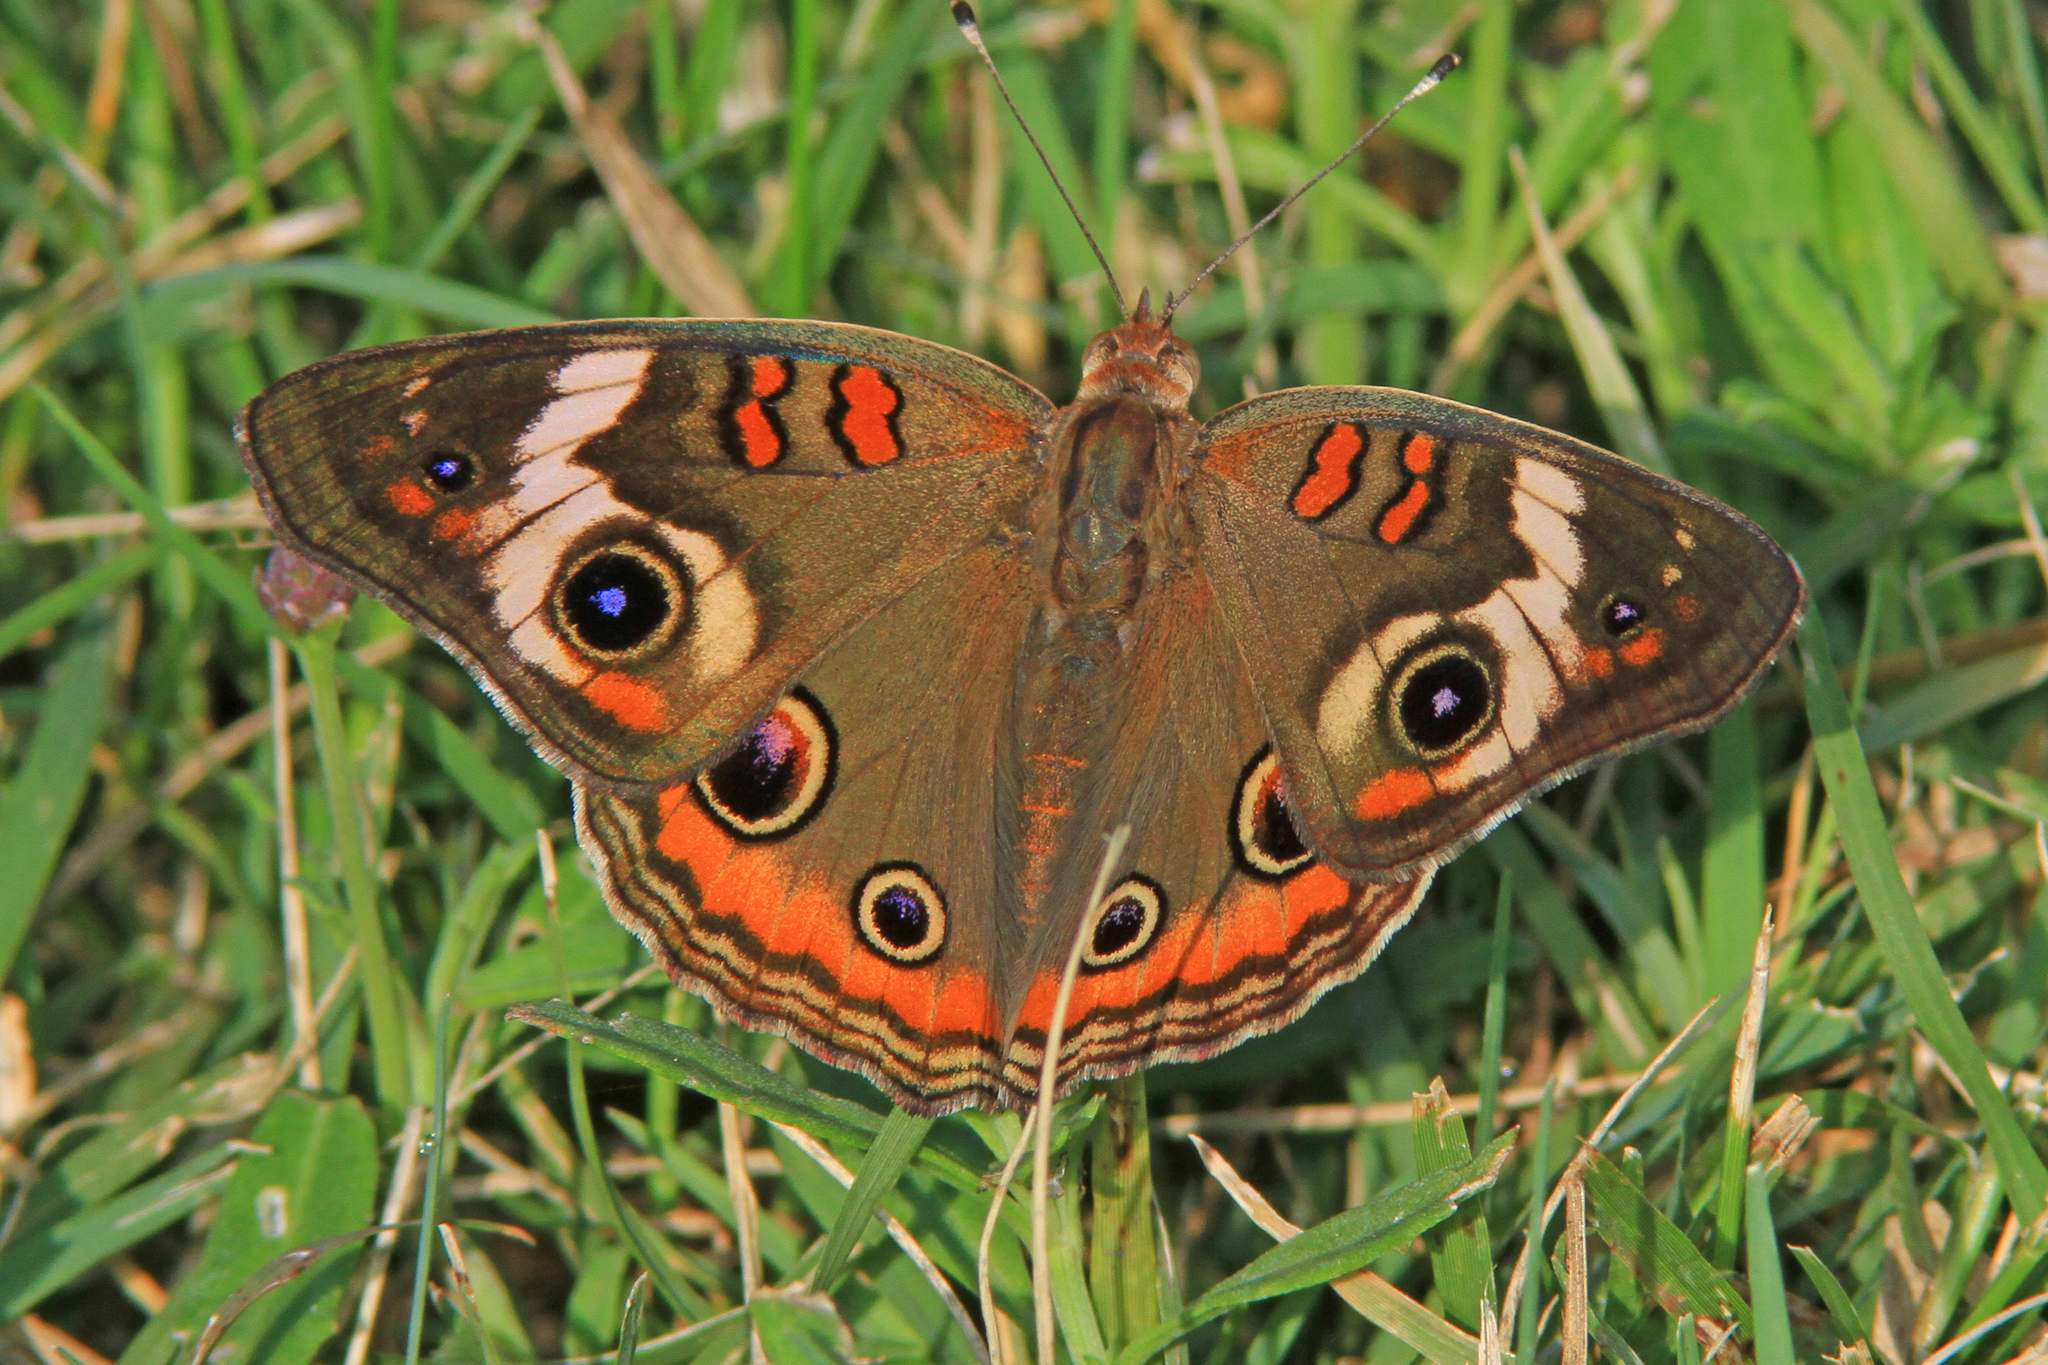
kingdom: Animalia
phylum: Arthropoda
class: Insecta
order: Lepidoptera
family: Nymphalidae
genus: Junonia
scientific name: Junonia coenia
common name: Common buckeye
